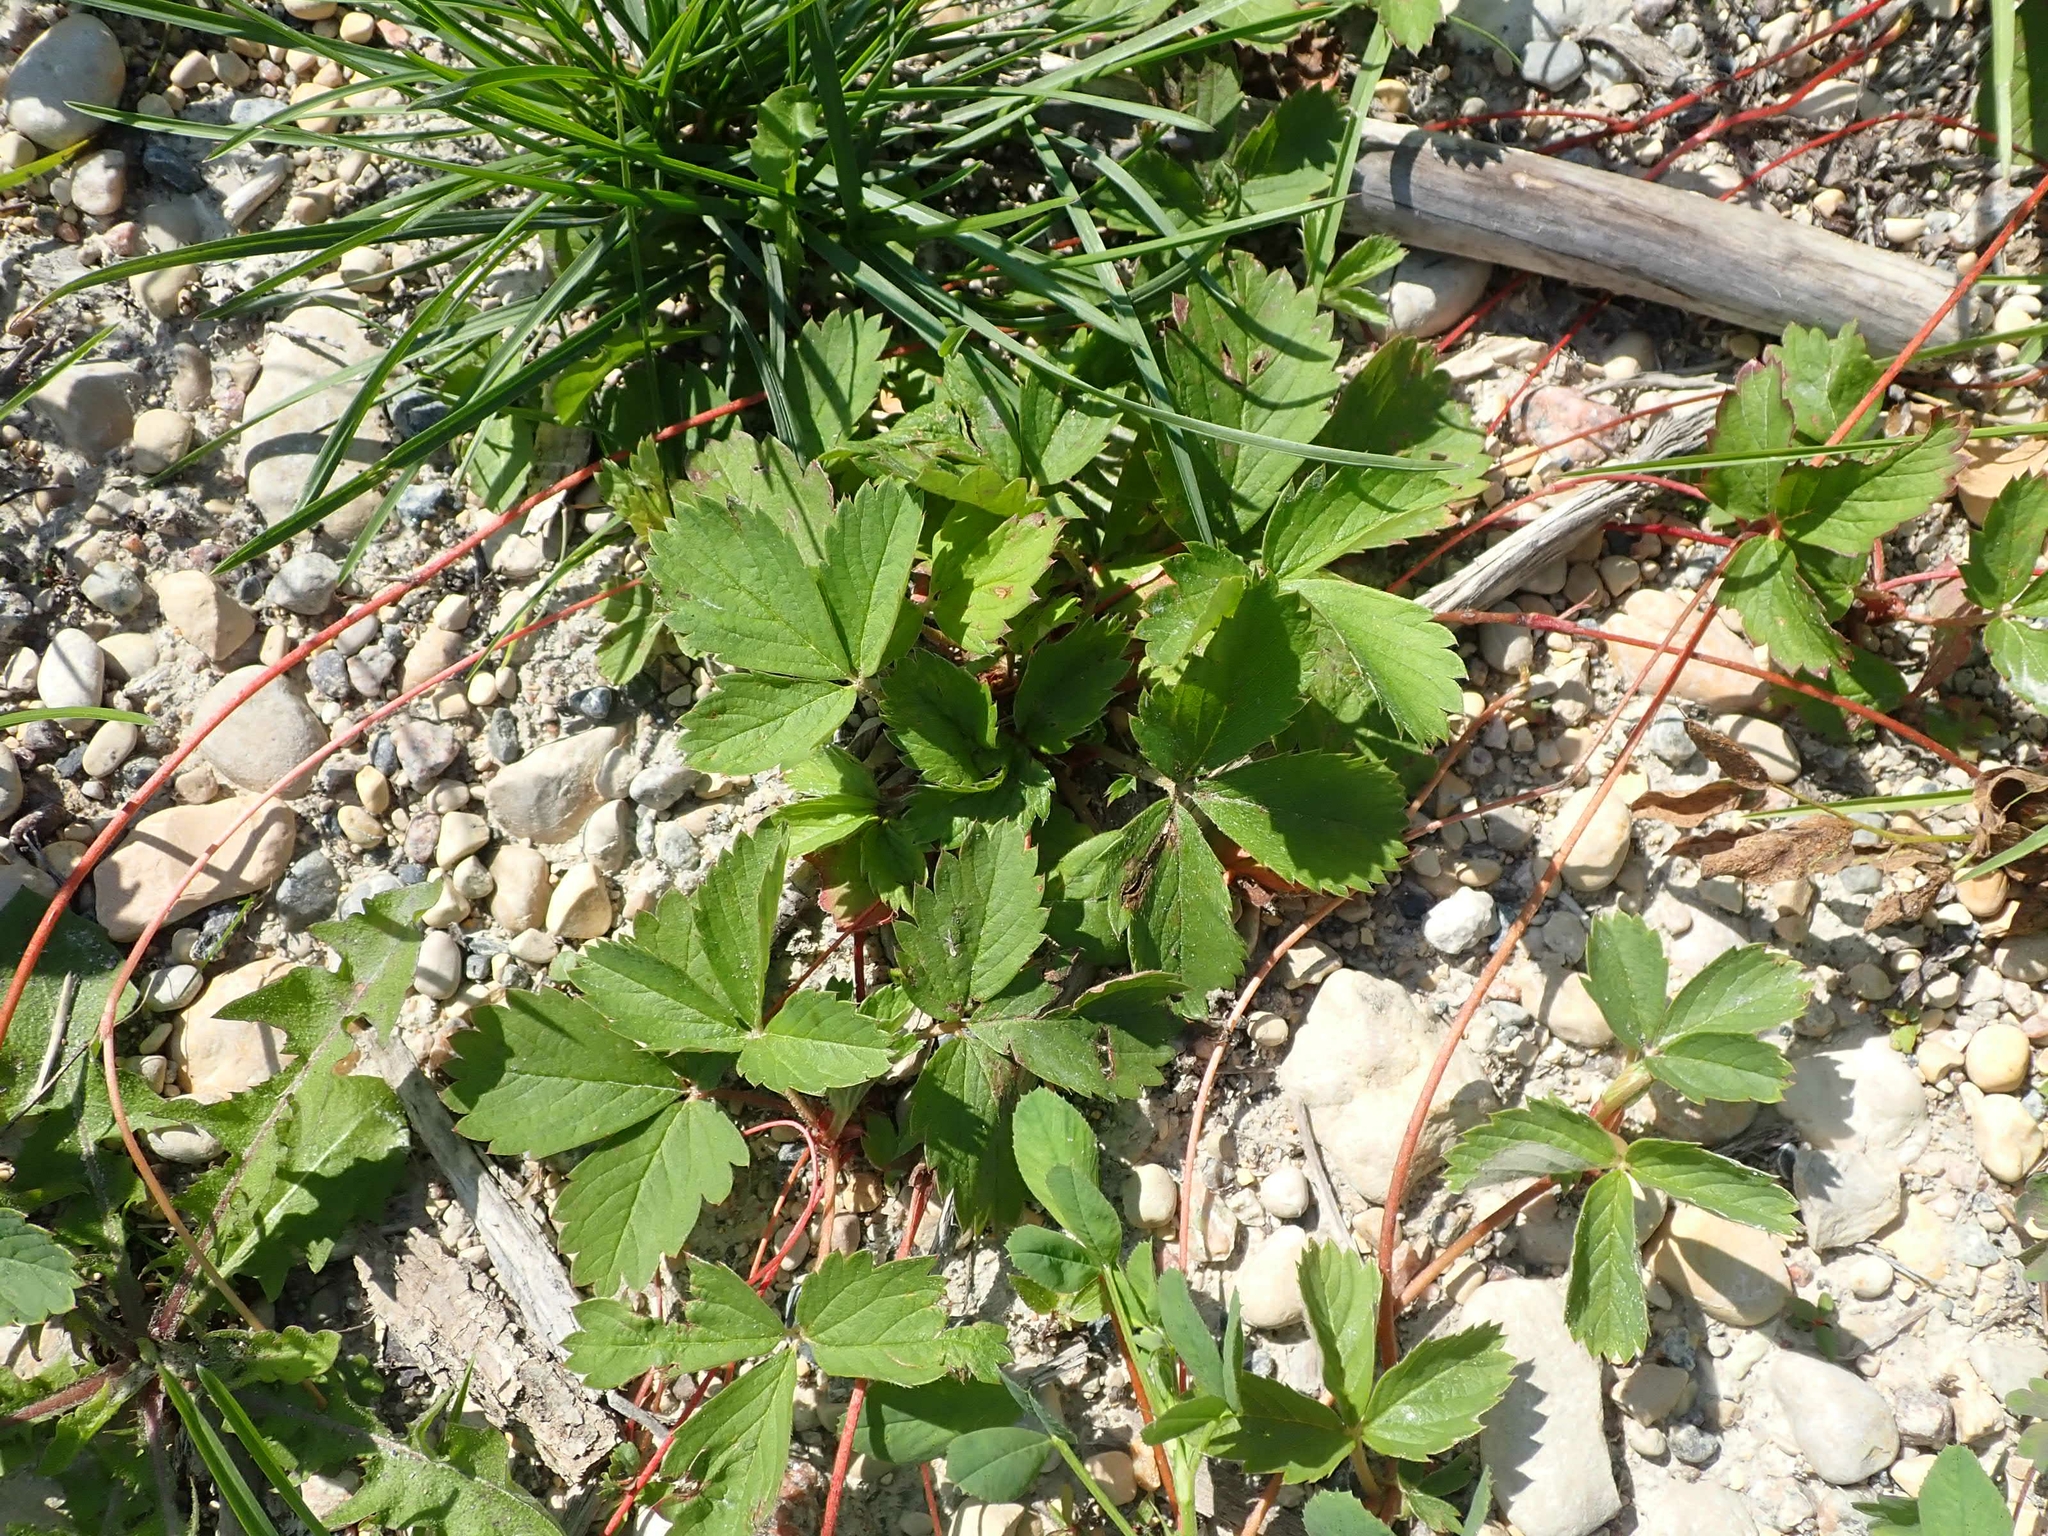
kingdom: Plantae
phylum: Tracheophyta
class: Magnoliopsida
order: Rosales
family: Rosaceae
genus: Fragaria
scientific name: Fragaria virginiana
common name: Thickleaved wild strawberry
